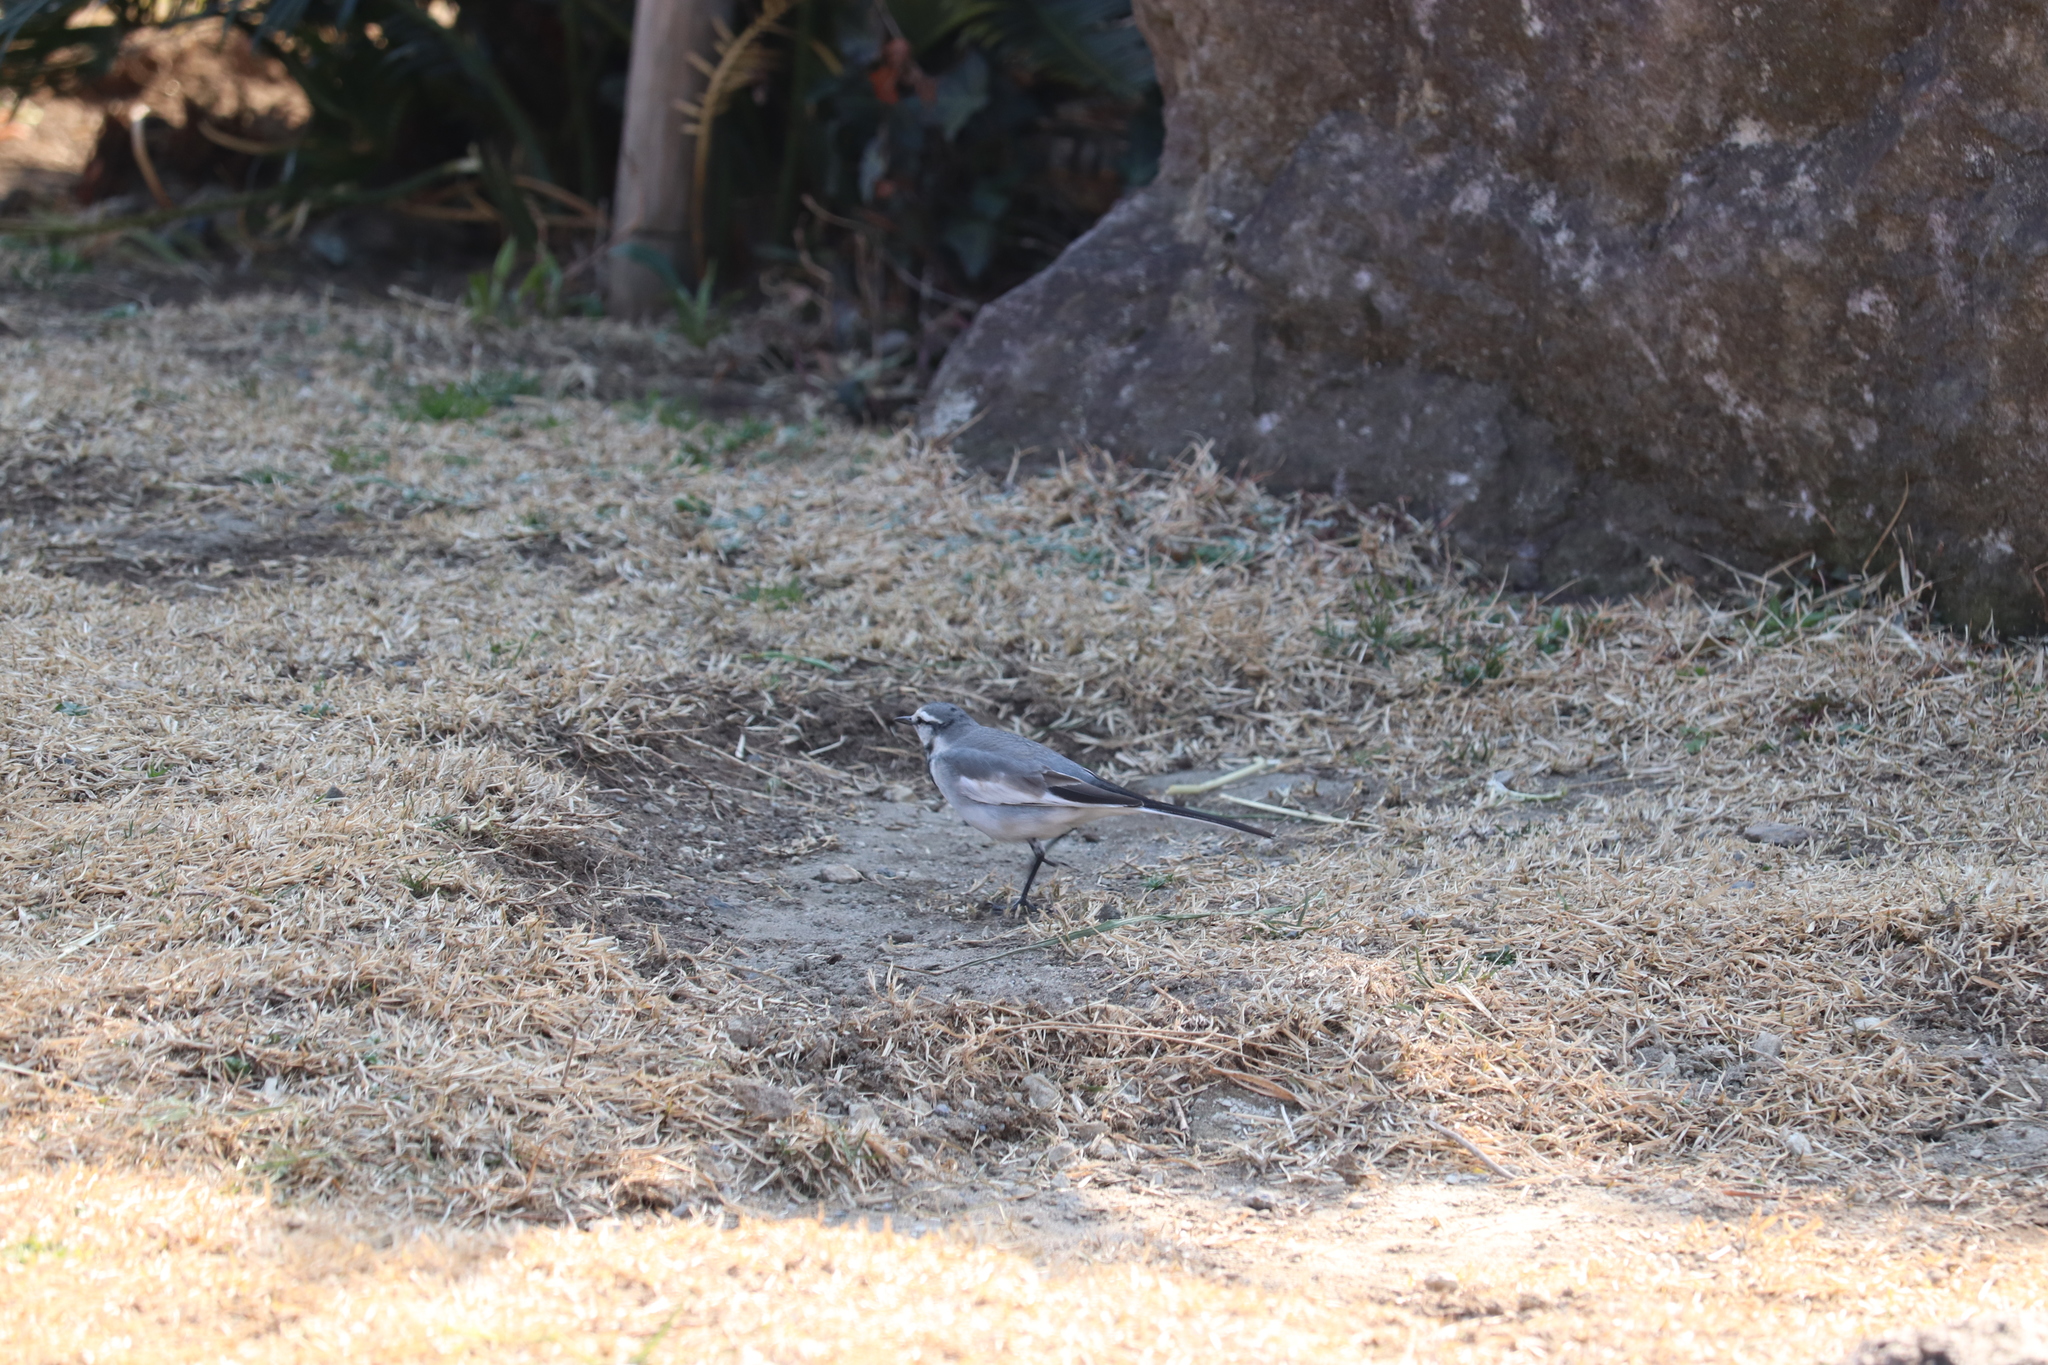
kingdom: Animalia
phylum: Chordata
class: Aves
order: Passeriformes
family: Motacillidae
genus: Motacilla
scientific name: Motacilla alba
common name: White wagtail
